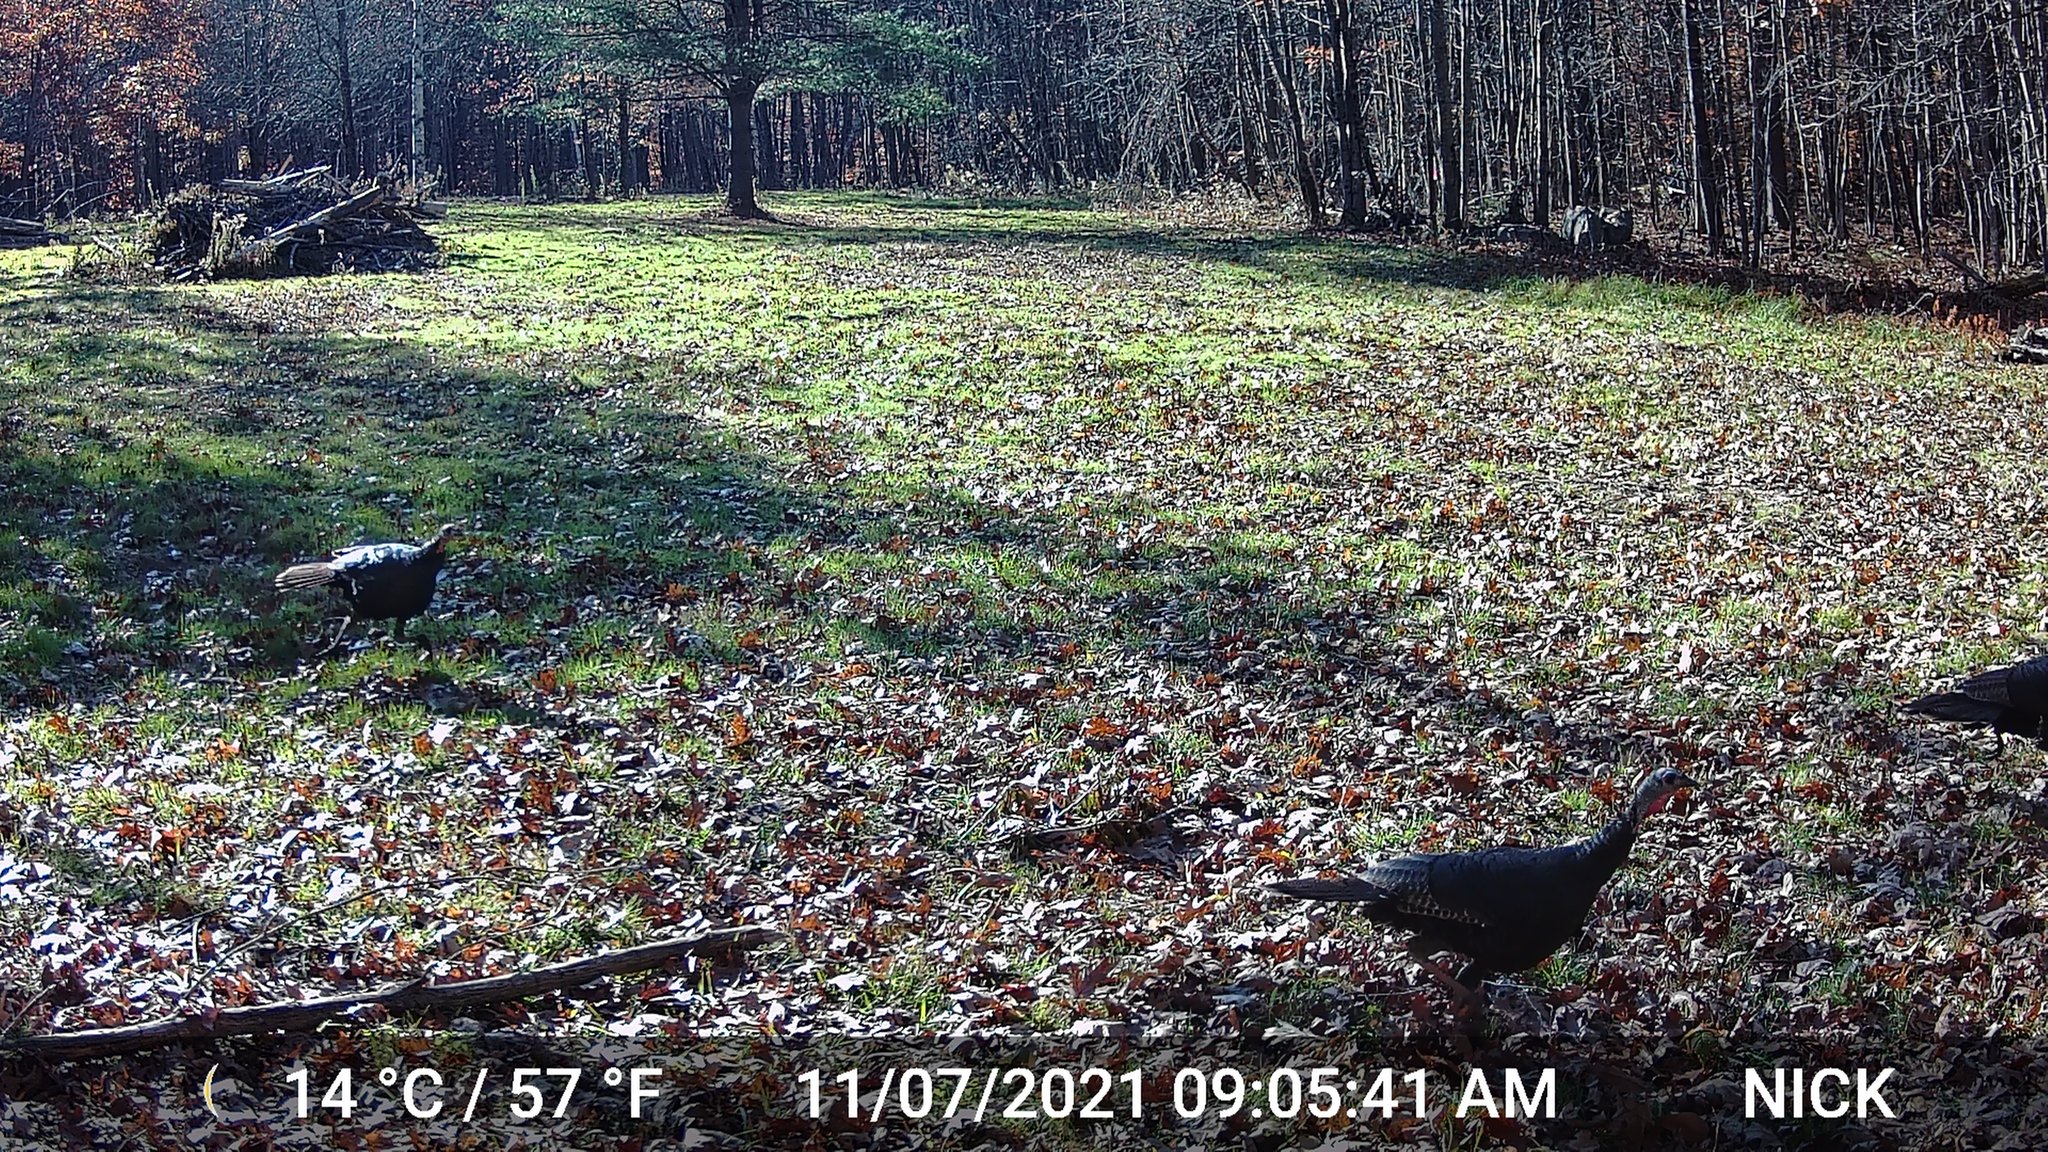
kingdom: Animalia
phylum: Chordata
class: Aves
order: Galliformes
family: Phasianidae
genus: Meleagris
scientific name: Meleagris gallopavo
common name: Wild turkey
